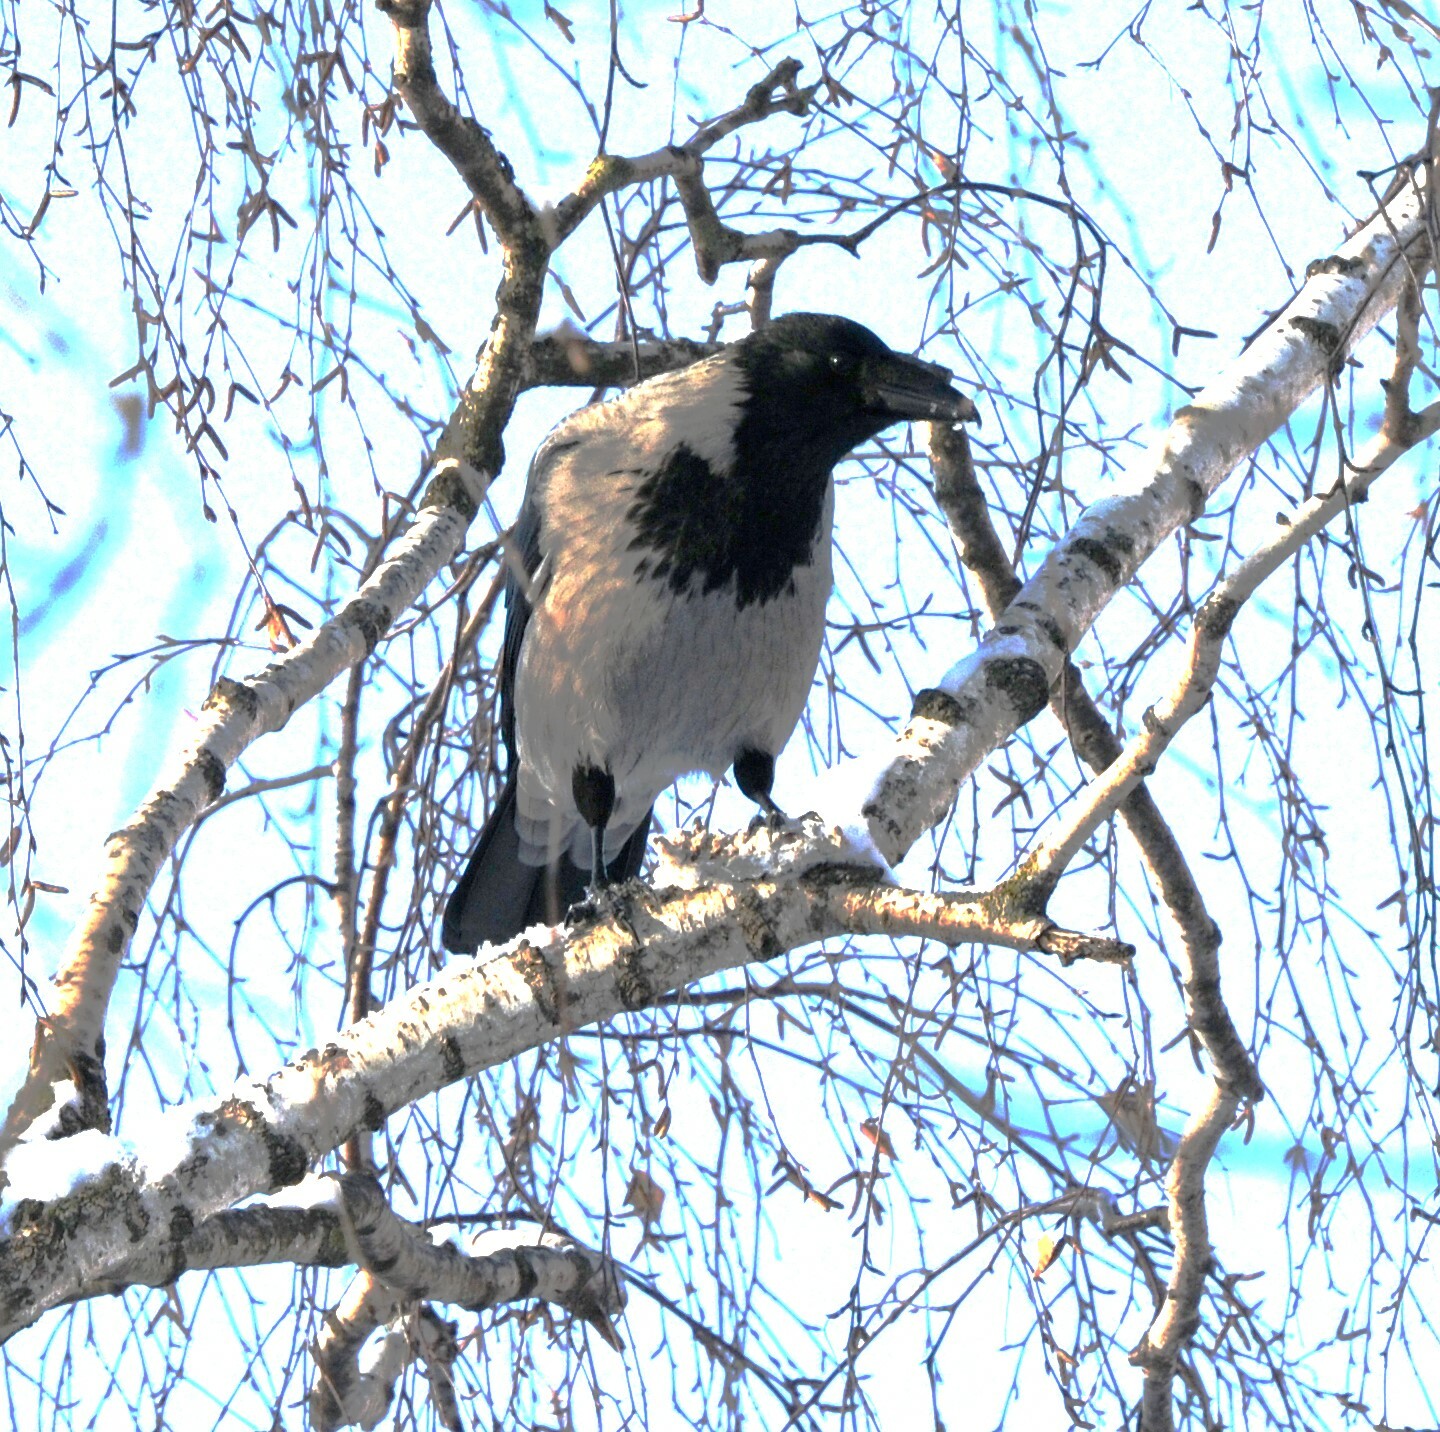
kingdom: Animalia
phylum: Chordata
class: Aves
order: Passeriformes
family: Corvidae
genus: Corvus
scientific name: Corvus cornix
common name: Hooded crow
